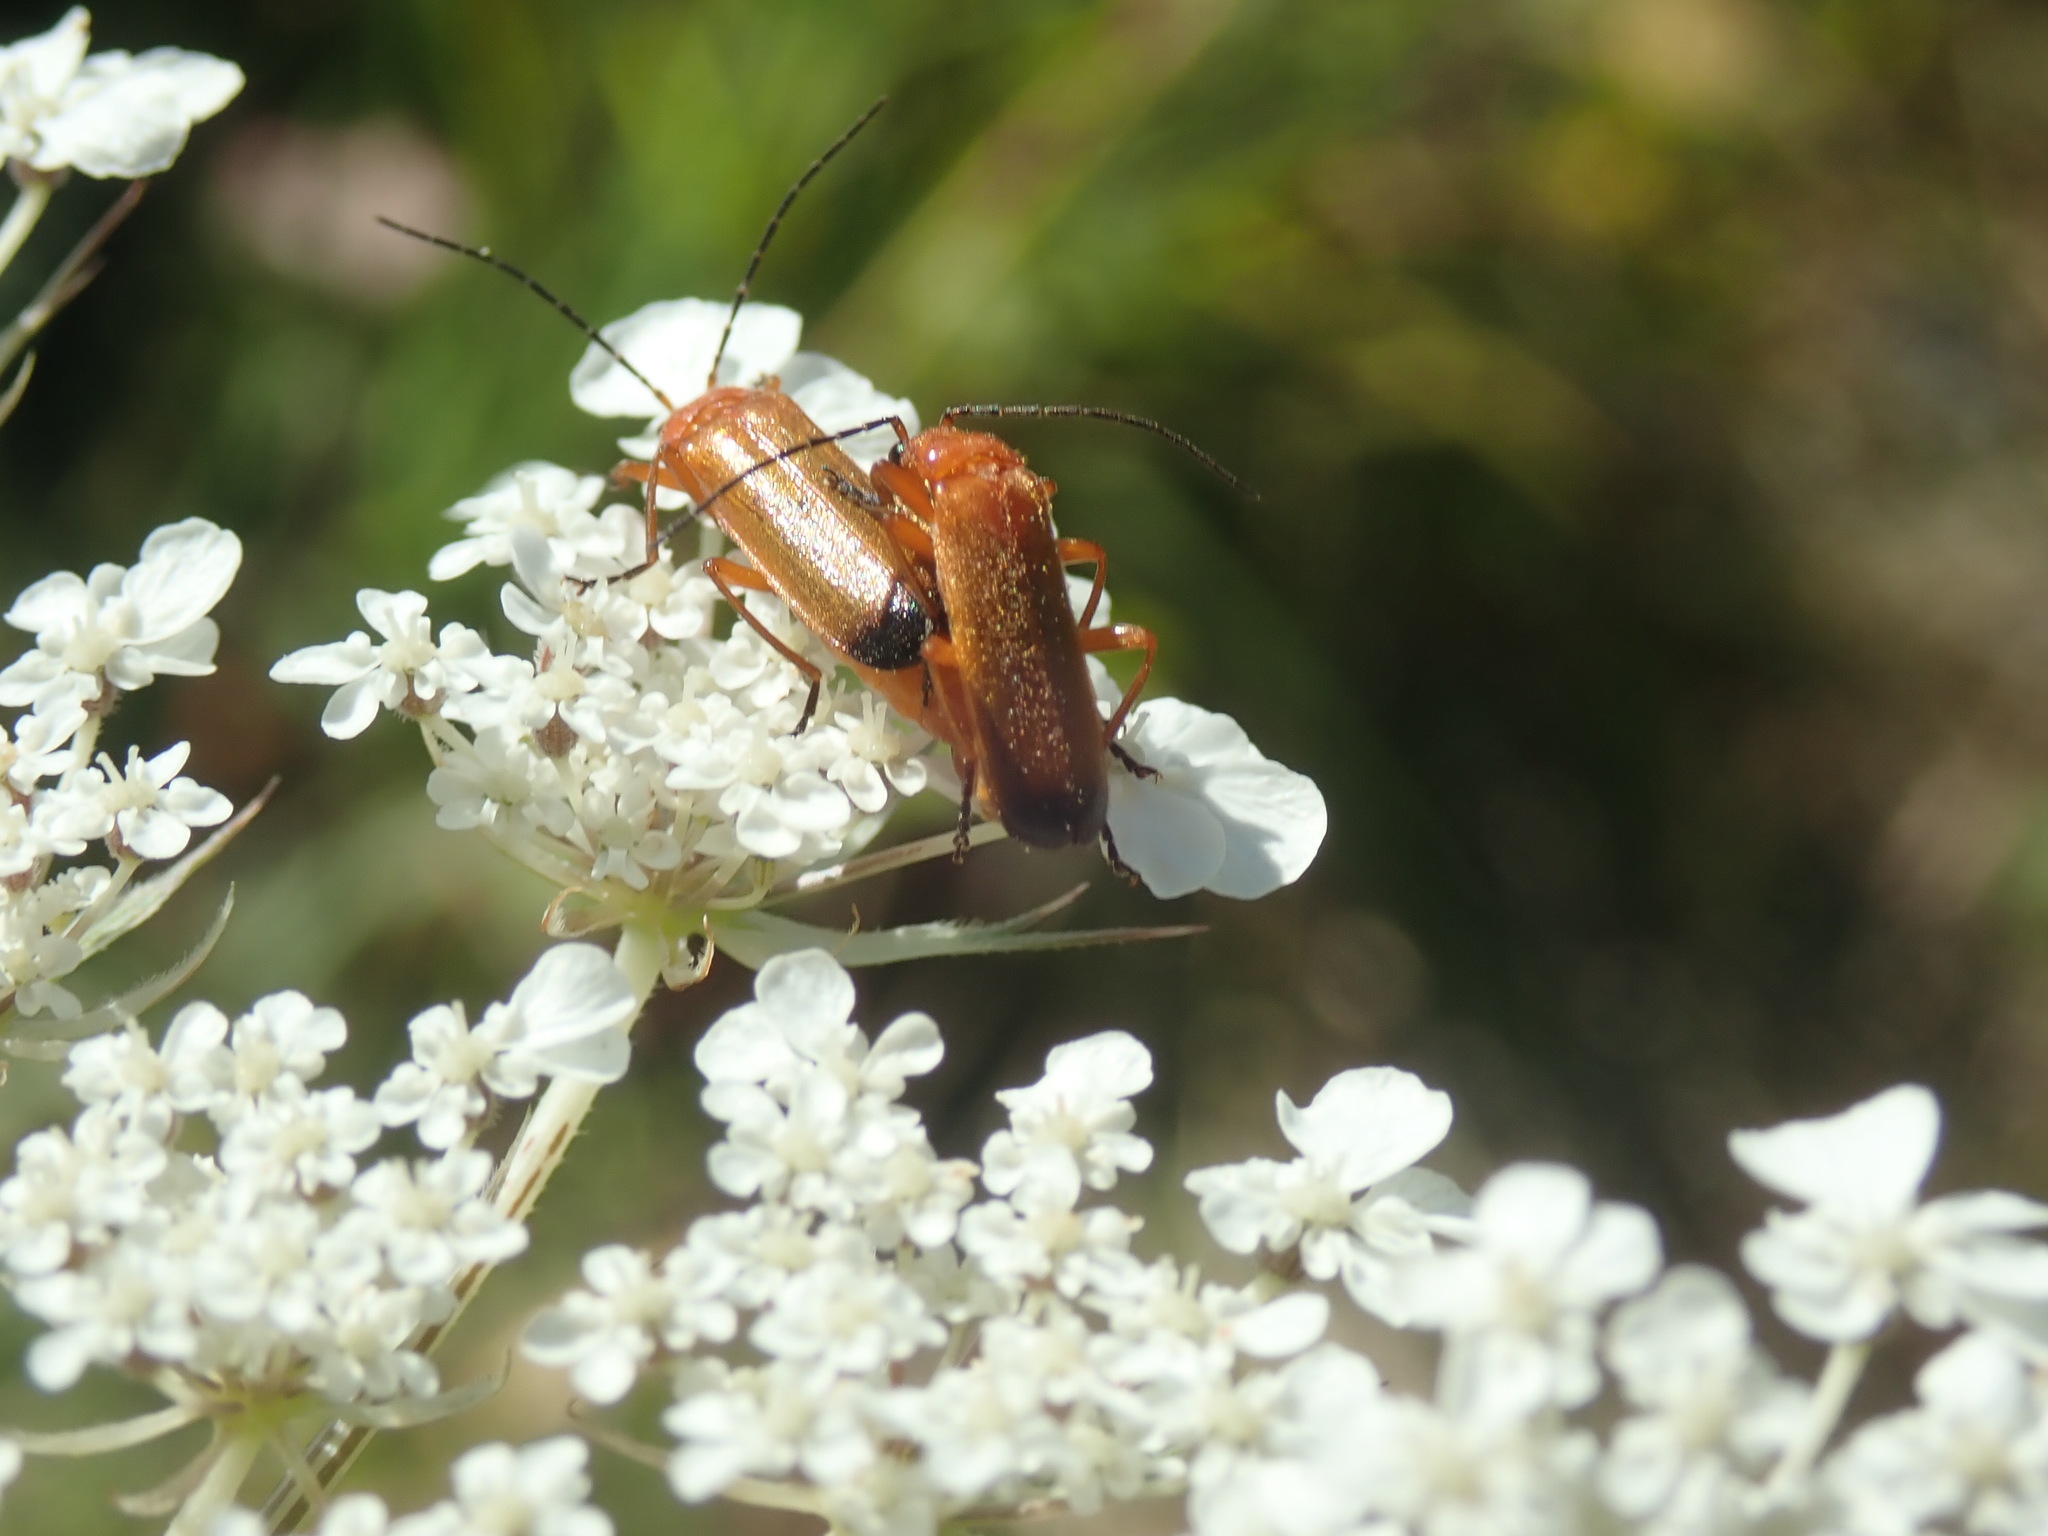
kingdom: Animalia
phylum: Arthropoda
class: Insecta
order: Coleoptera
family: Cantharidae
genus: Rhagonycha
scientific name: Rhagonycha fulva
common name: Common red soldier beetle
